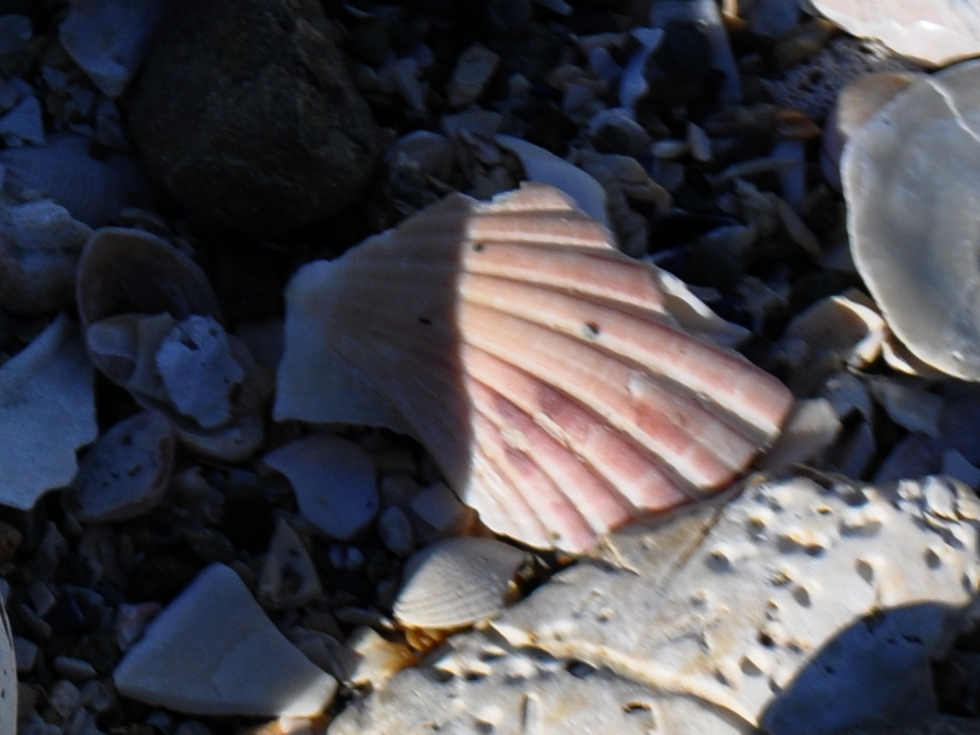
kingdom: Animalia
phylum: Mollusca
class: Bivalvia
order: Pectinida
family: Pectinidae
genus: Pecten
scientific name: Pecten novaezelandiae
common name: New zealand scallop
